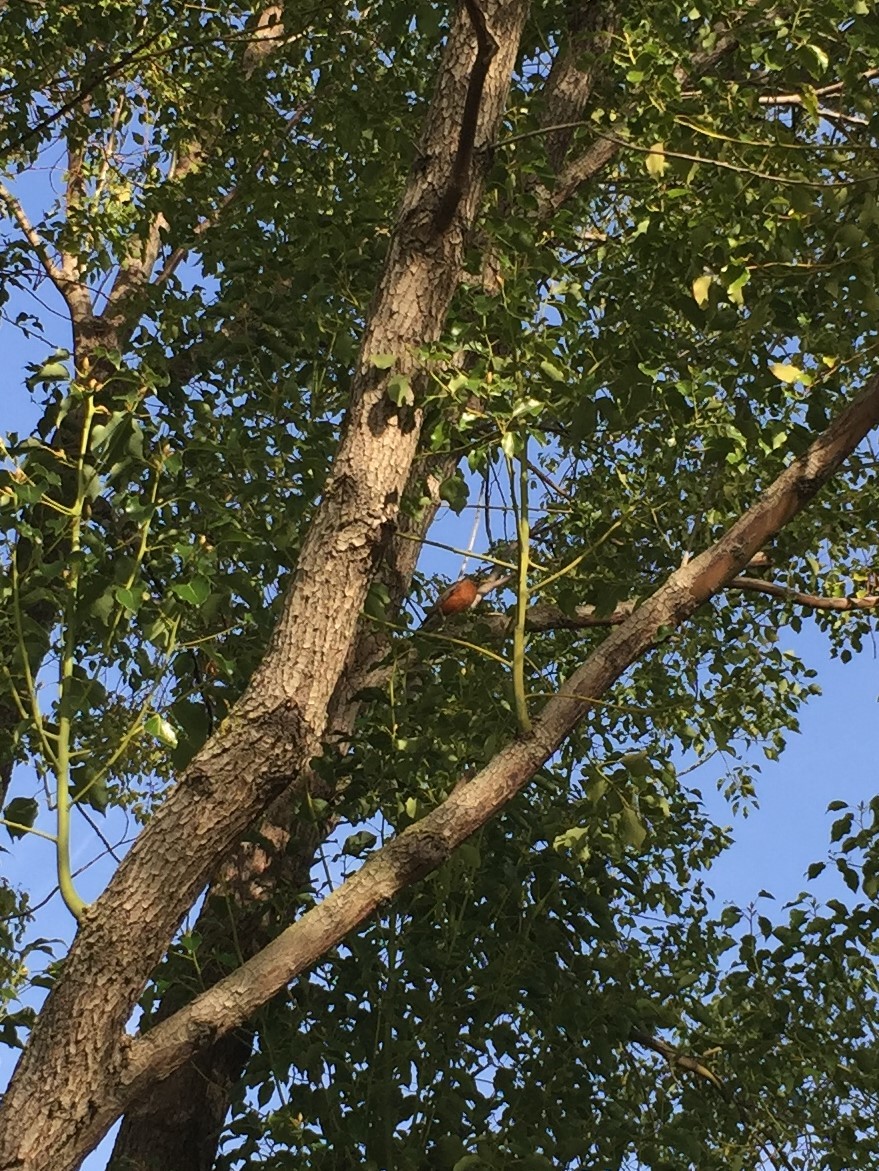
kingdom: Animalia
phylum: Chordata
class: Aves
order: Passeriformes
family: Turdidae
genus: Turdus
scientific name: Turdus migratorius
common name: American robin
